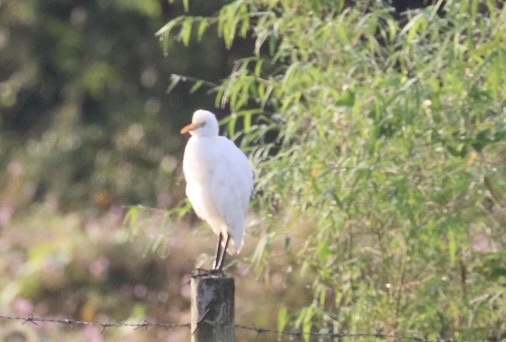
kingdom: Animalia
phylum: Chordata
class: Aves
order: Pelecaniformes
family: Ardeidae
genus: Bubulcus
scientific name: Bubulcus coromandus
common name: Eastern cattle egret
